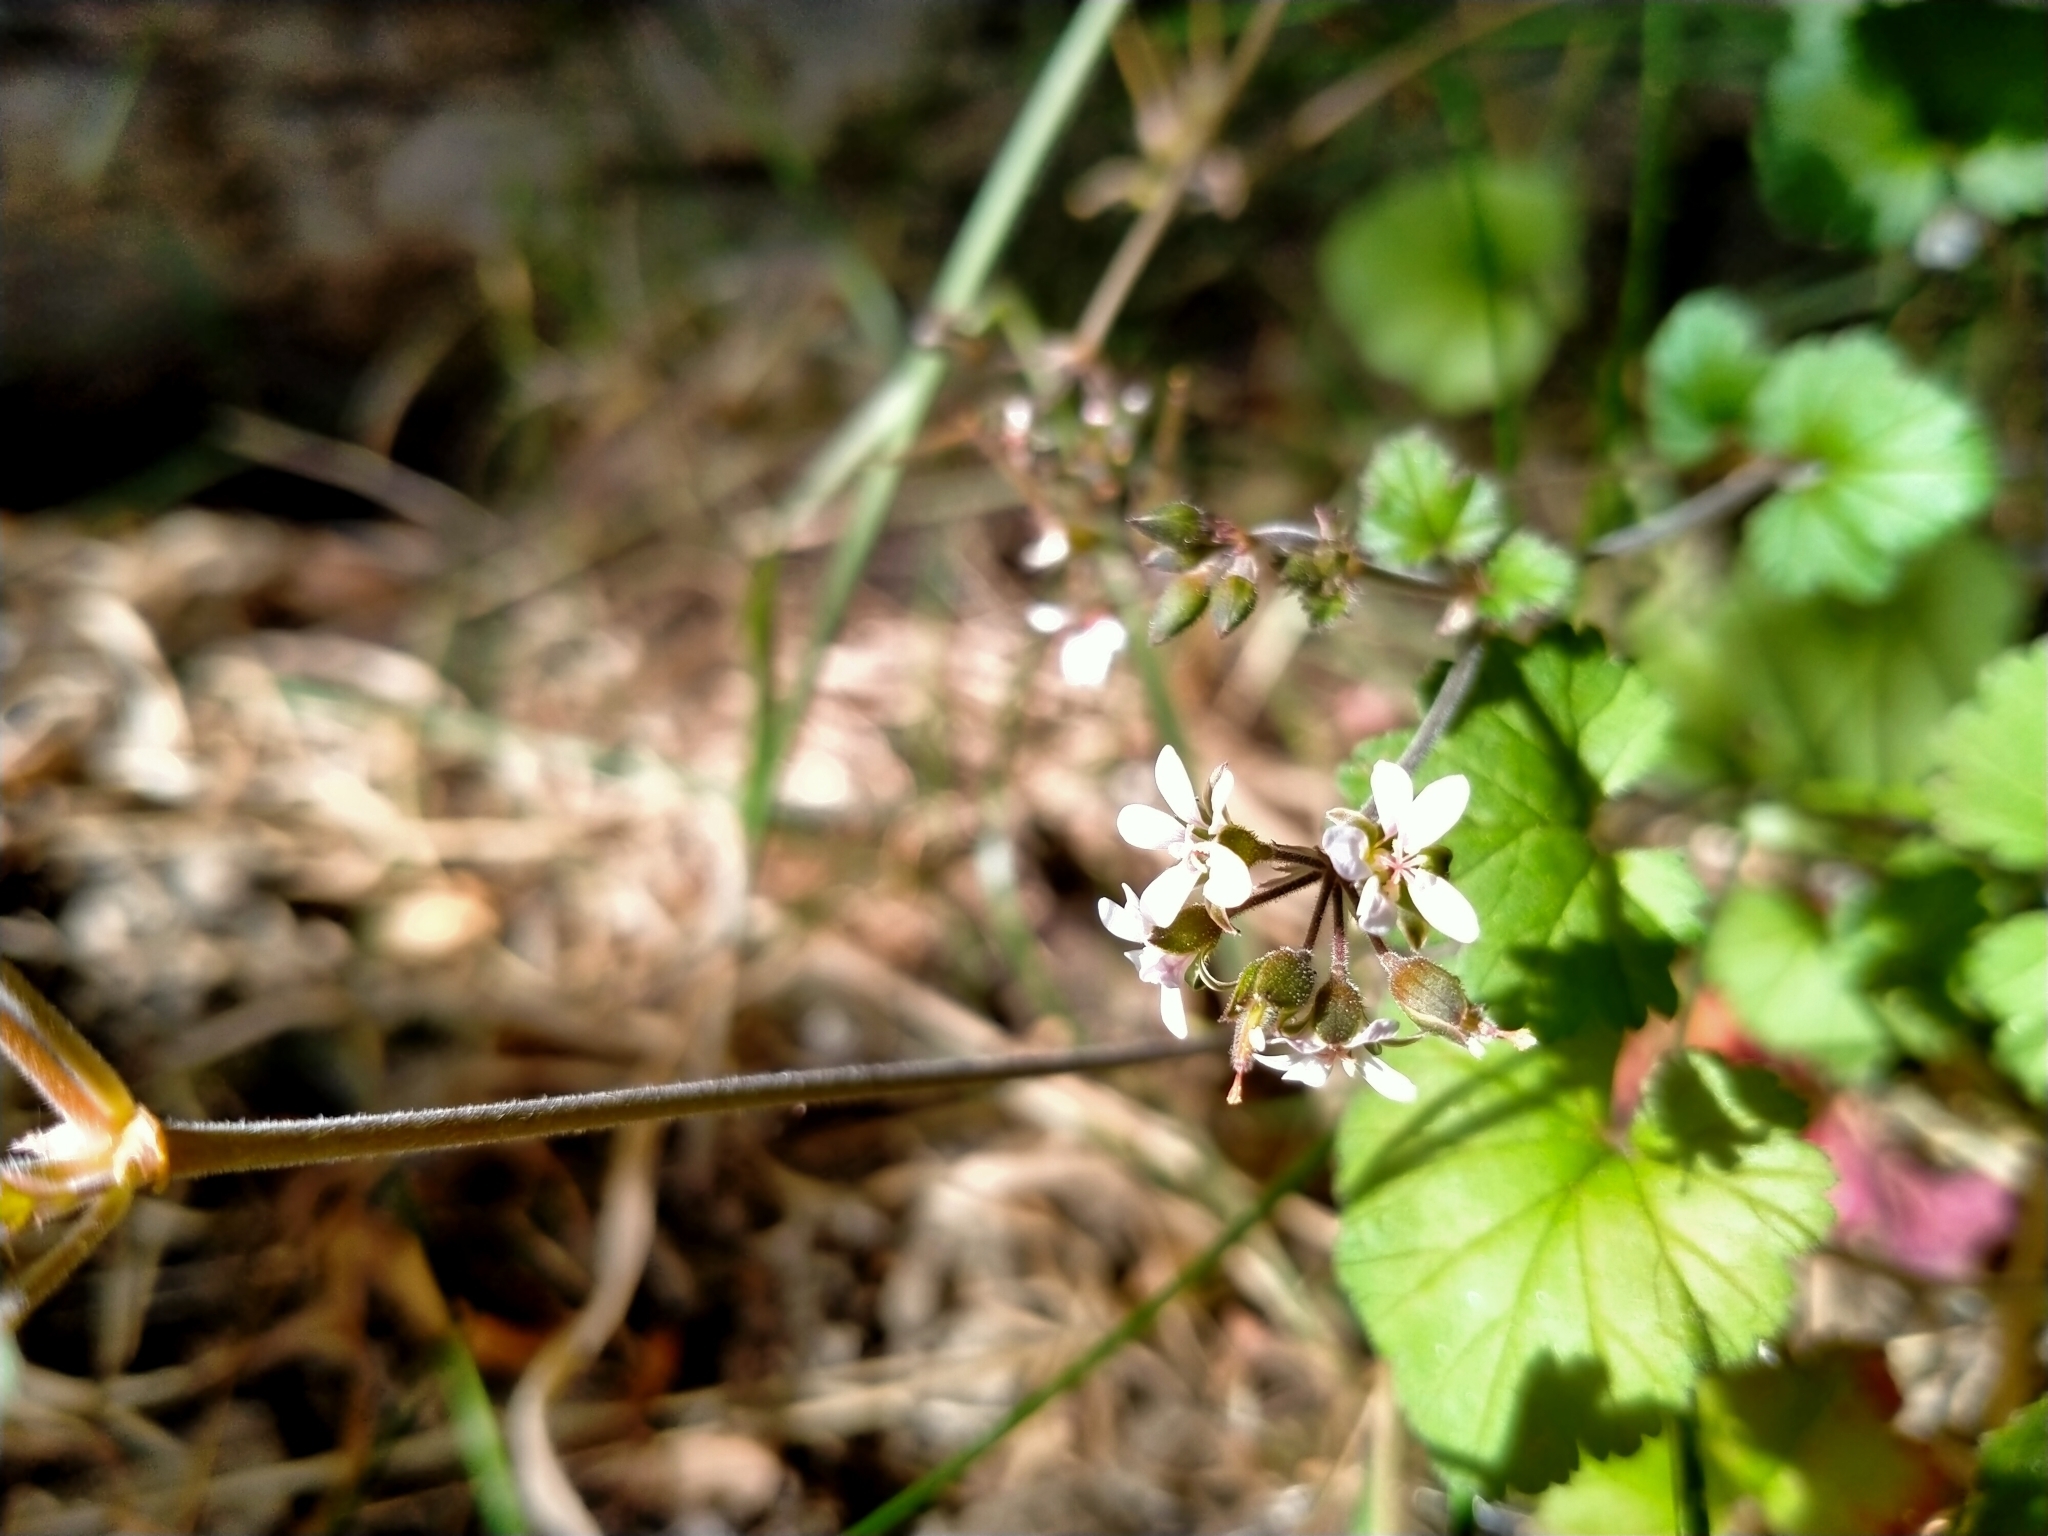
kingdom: Plantae
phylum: Tracheophyta
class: Magnoliopsida
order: Geraniales
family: Geraniaceae
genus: Pelargonium
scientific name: Pelargonium inodorum
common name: Kopata geranium
